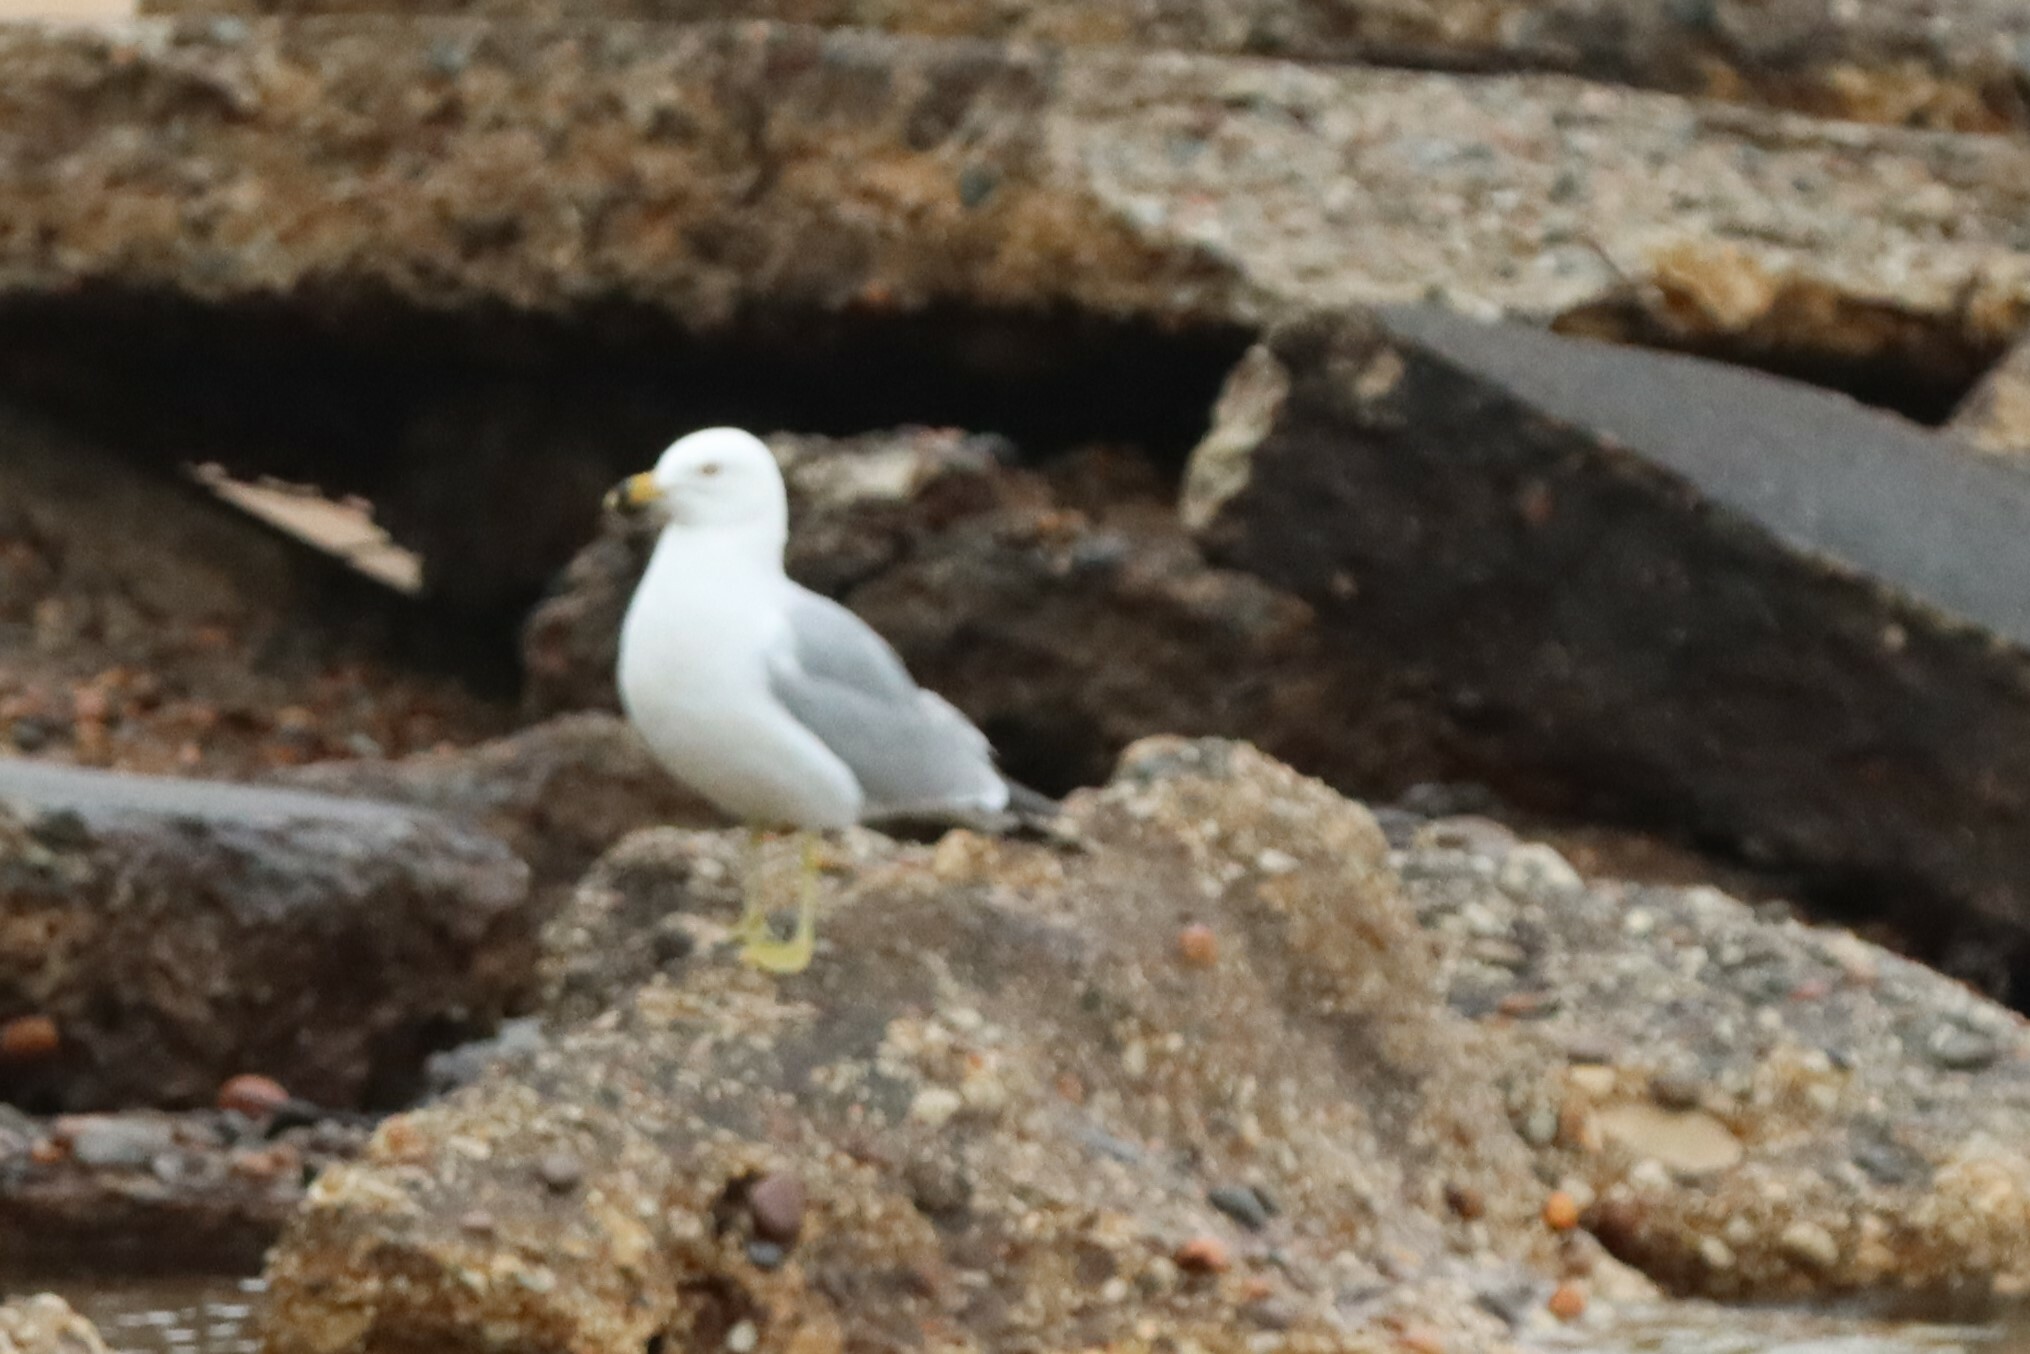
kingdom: Animalia
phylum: Chordata
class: Aves
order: Charadriiformes
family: Laridae
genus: Larus
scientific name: Larus delawarensis
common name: Ring-billed gull
